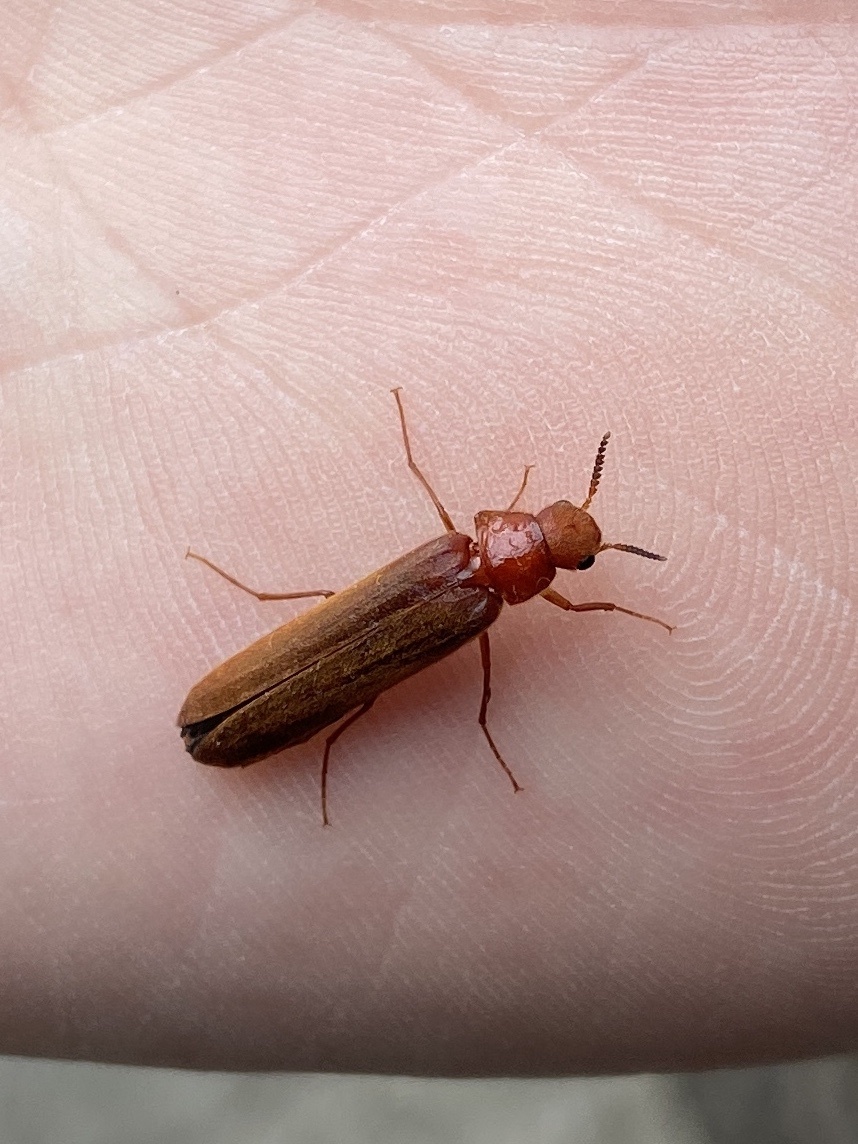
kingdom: Animalia
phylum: Arthropoda
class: Insecta
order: Coleoptera
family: Lymexylidae
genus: Hylecoetus
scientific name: Hylecoetus dermestoides
